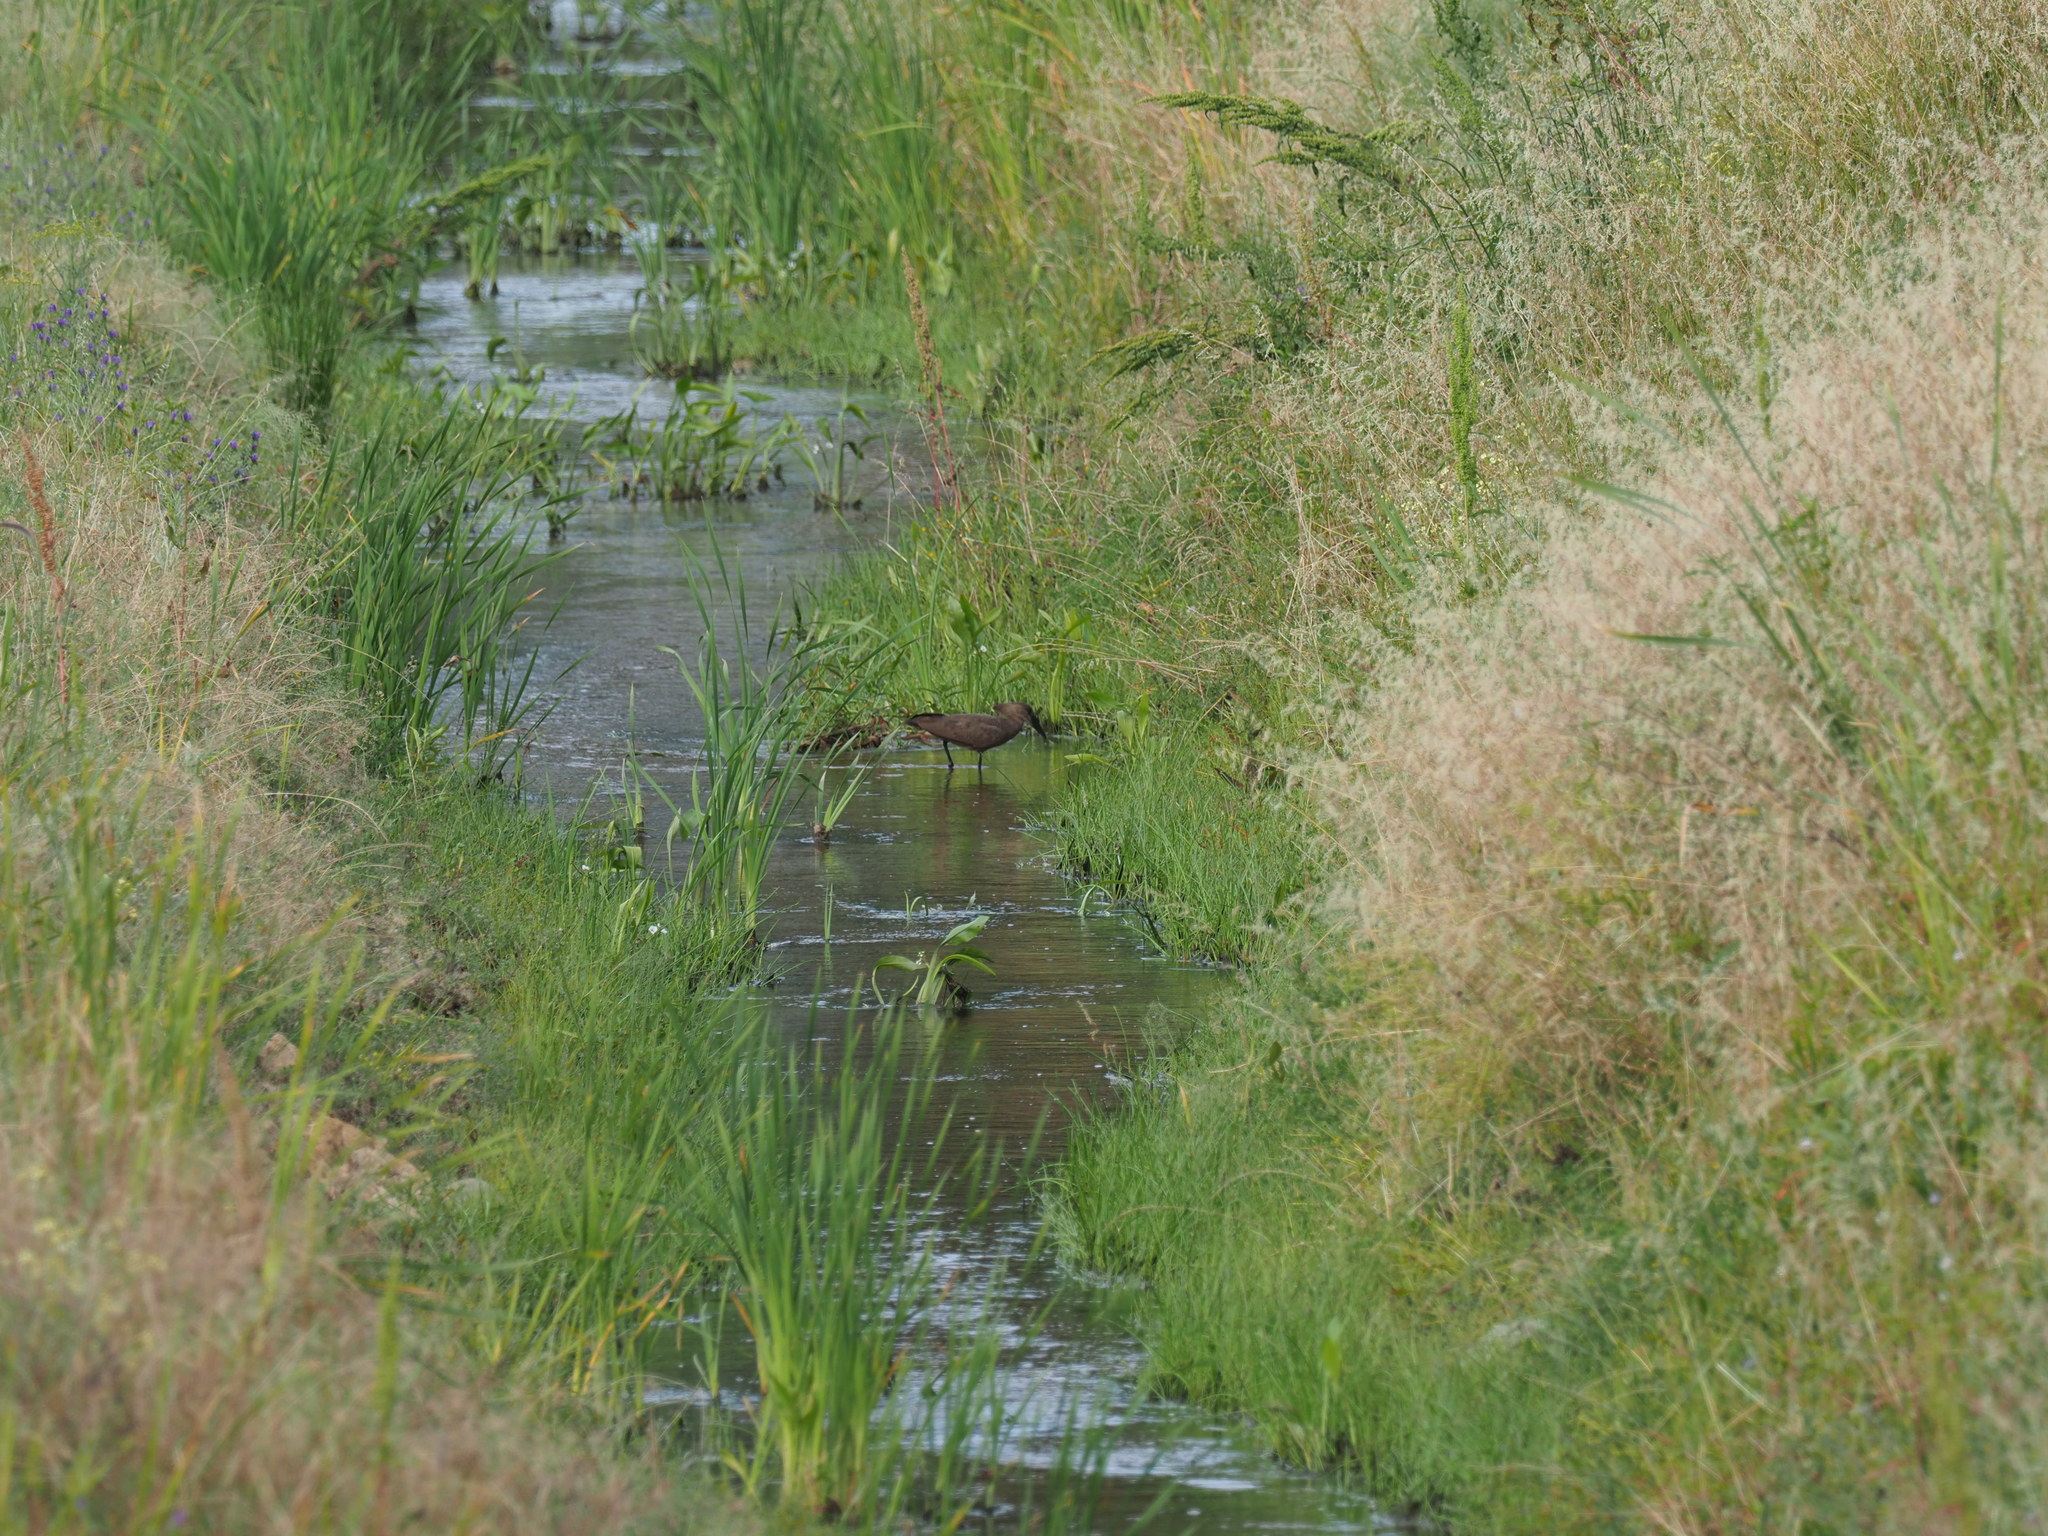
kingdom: Animalia
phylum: Chordata
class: Aves
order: Pelecaniformes
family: Scopidae
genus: Scopus
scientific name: Scopus umbretta
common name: Hamerkop
